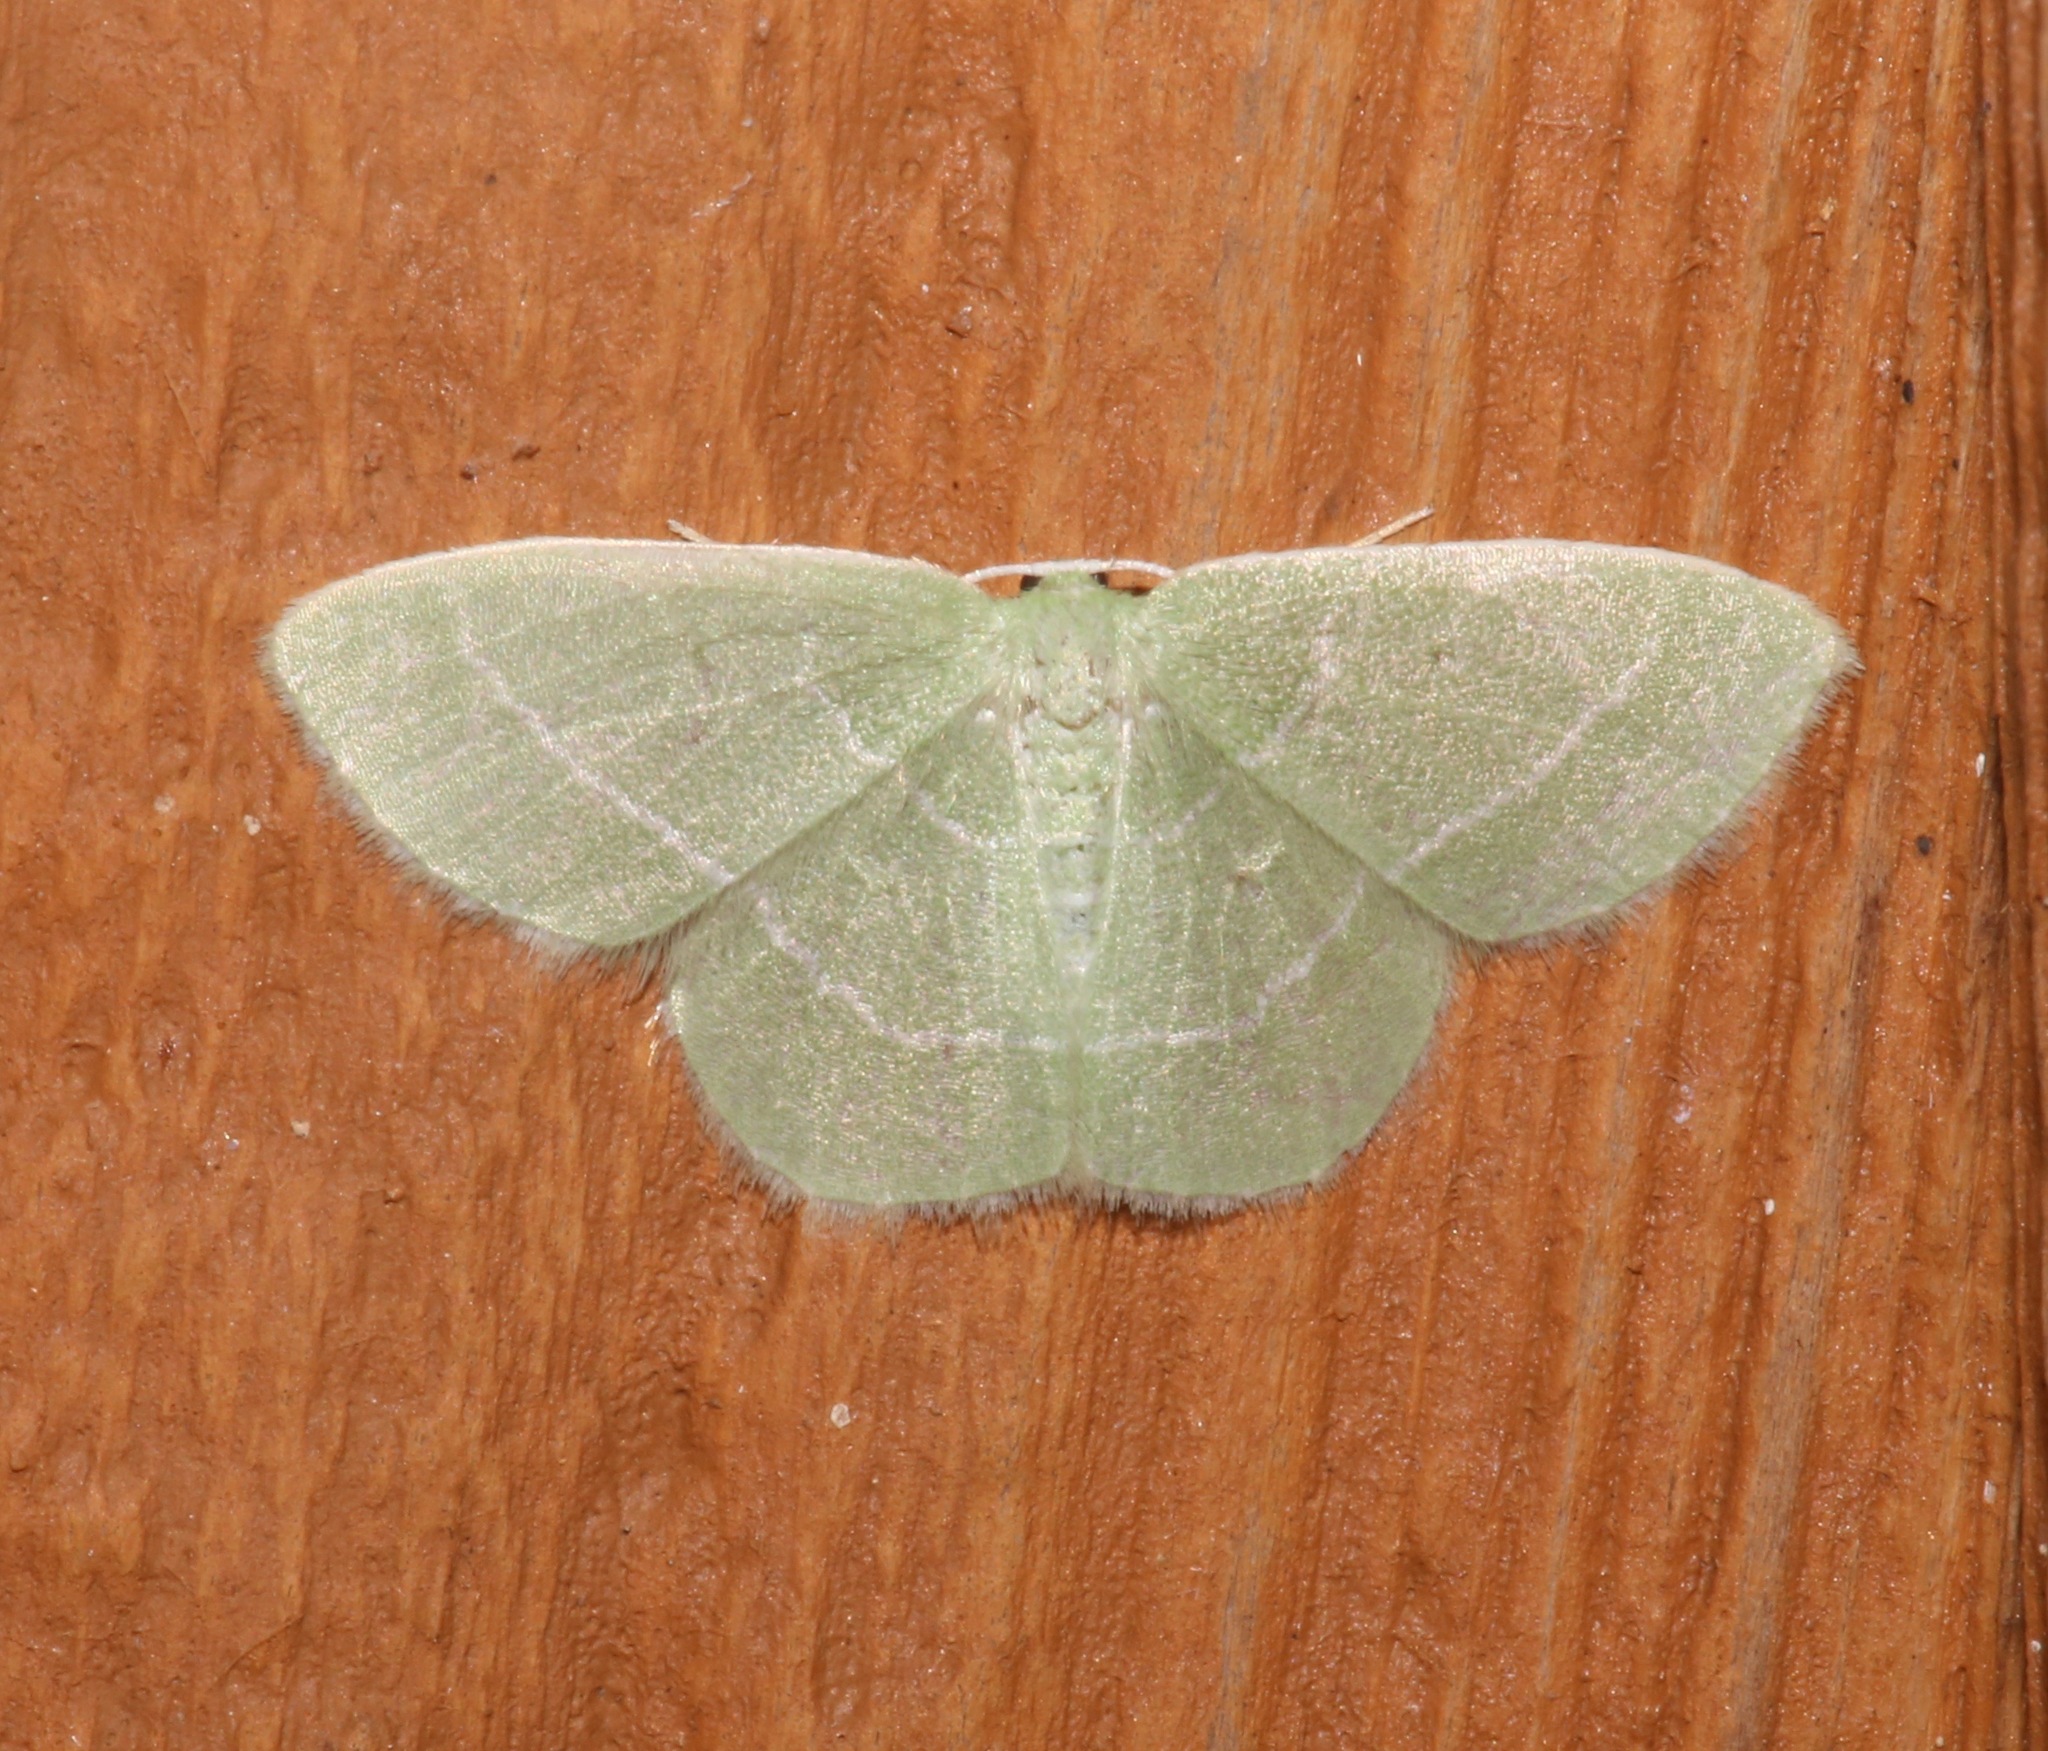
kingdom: Animalia
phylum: Arthropoda
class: Insecta
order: Lepidoptera
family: Geometridae
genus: Nemoria
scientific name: Nemoria elfa
